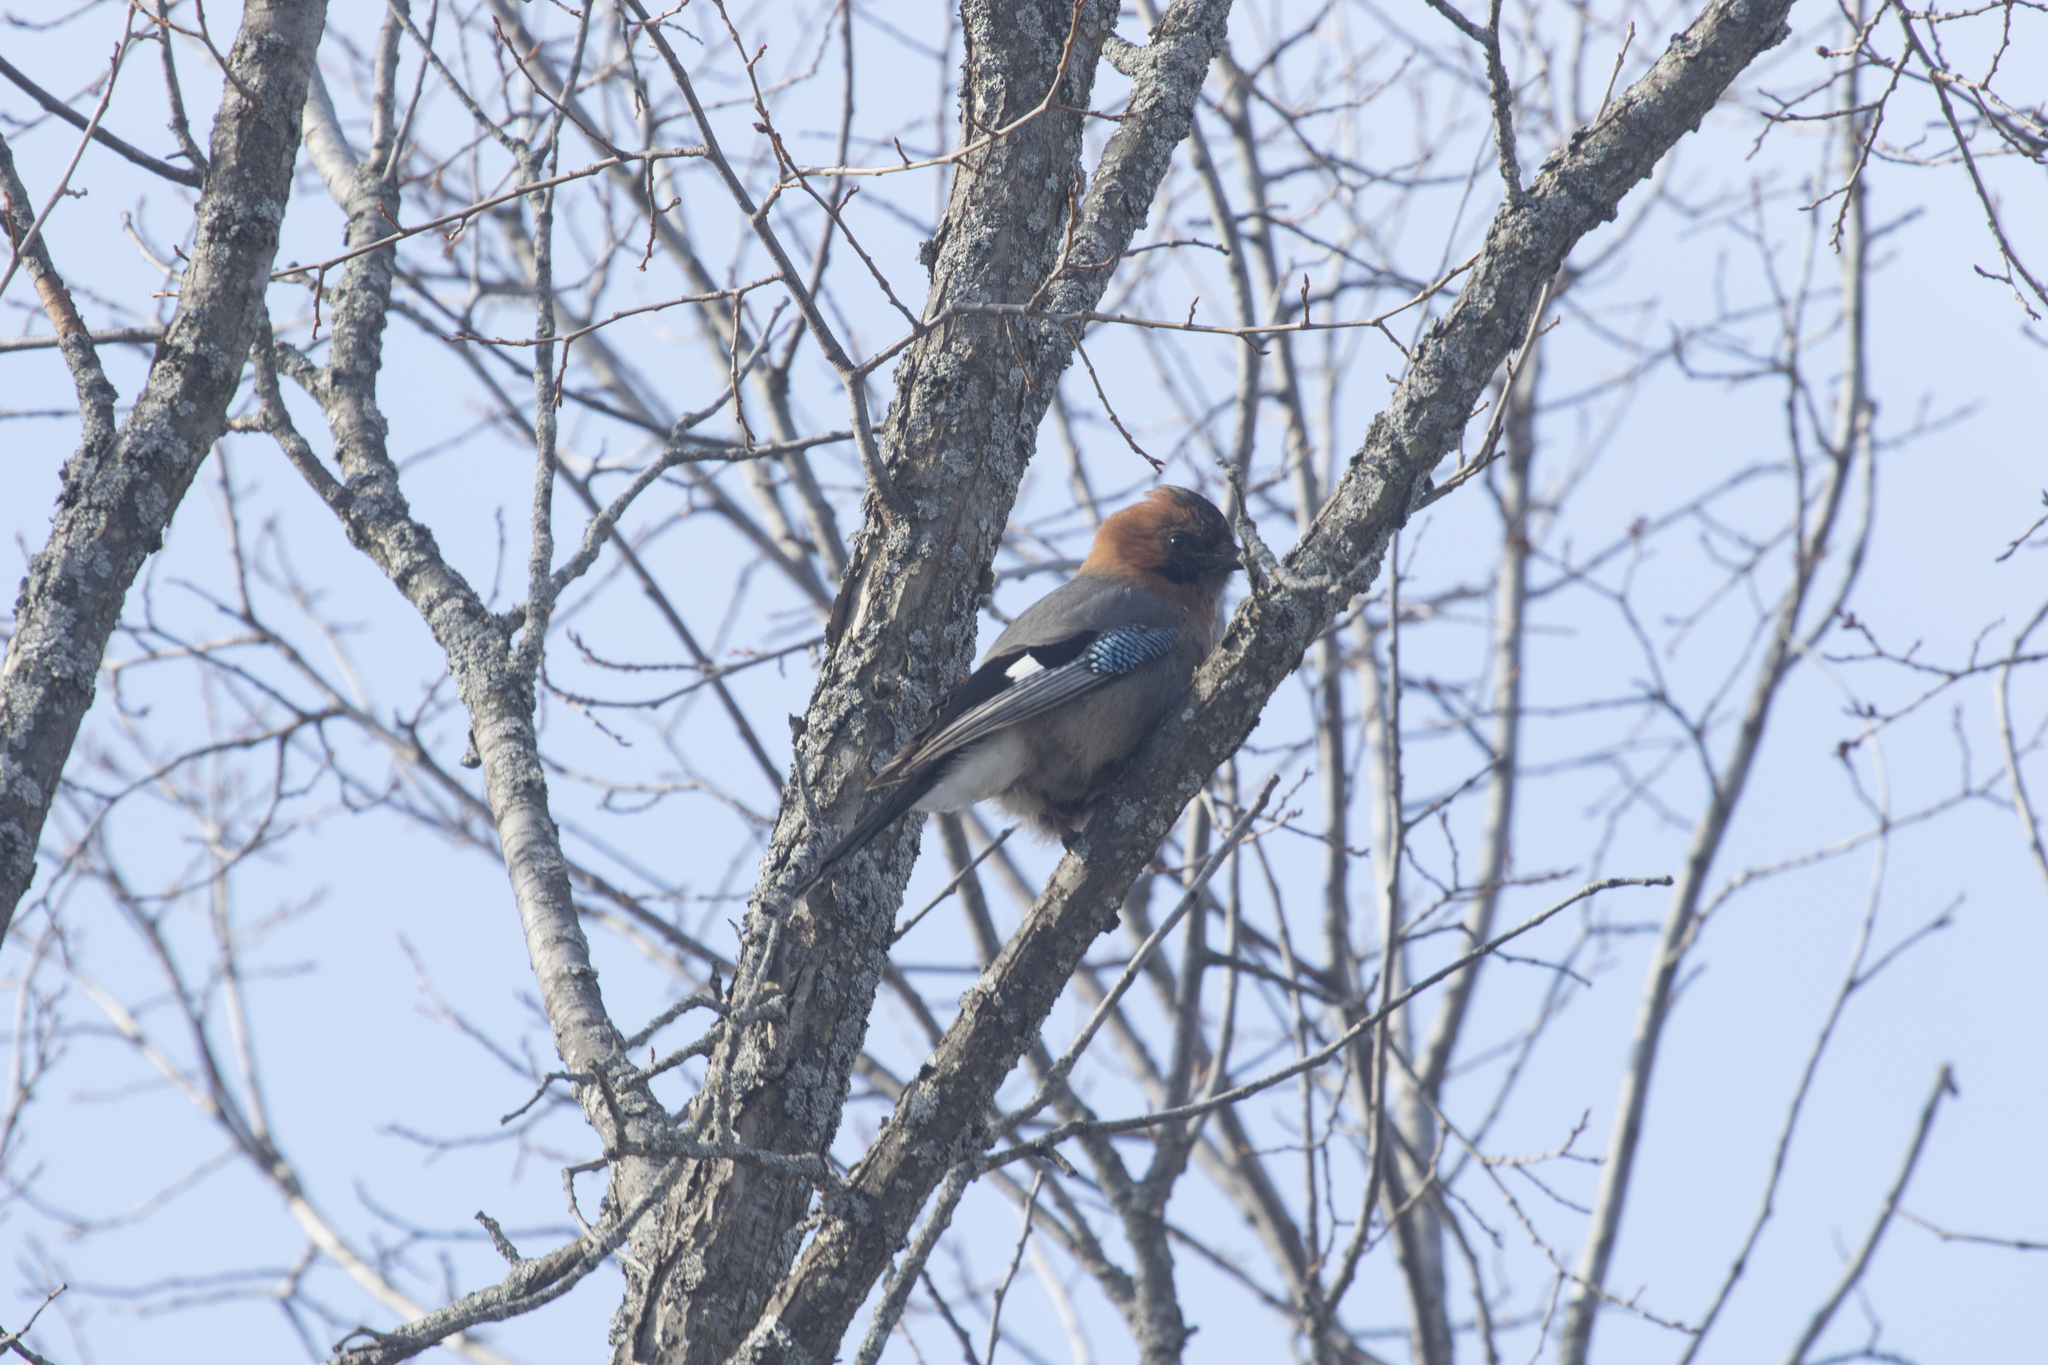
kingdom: Animalia
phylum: Chordata
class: Aves
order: Passeriformes
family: Corvidae
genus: Garrulus
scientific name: Garrulus glandarius
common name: Eurasian jay
